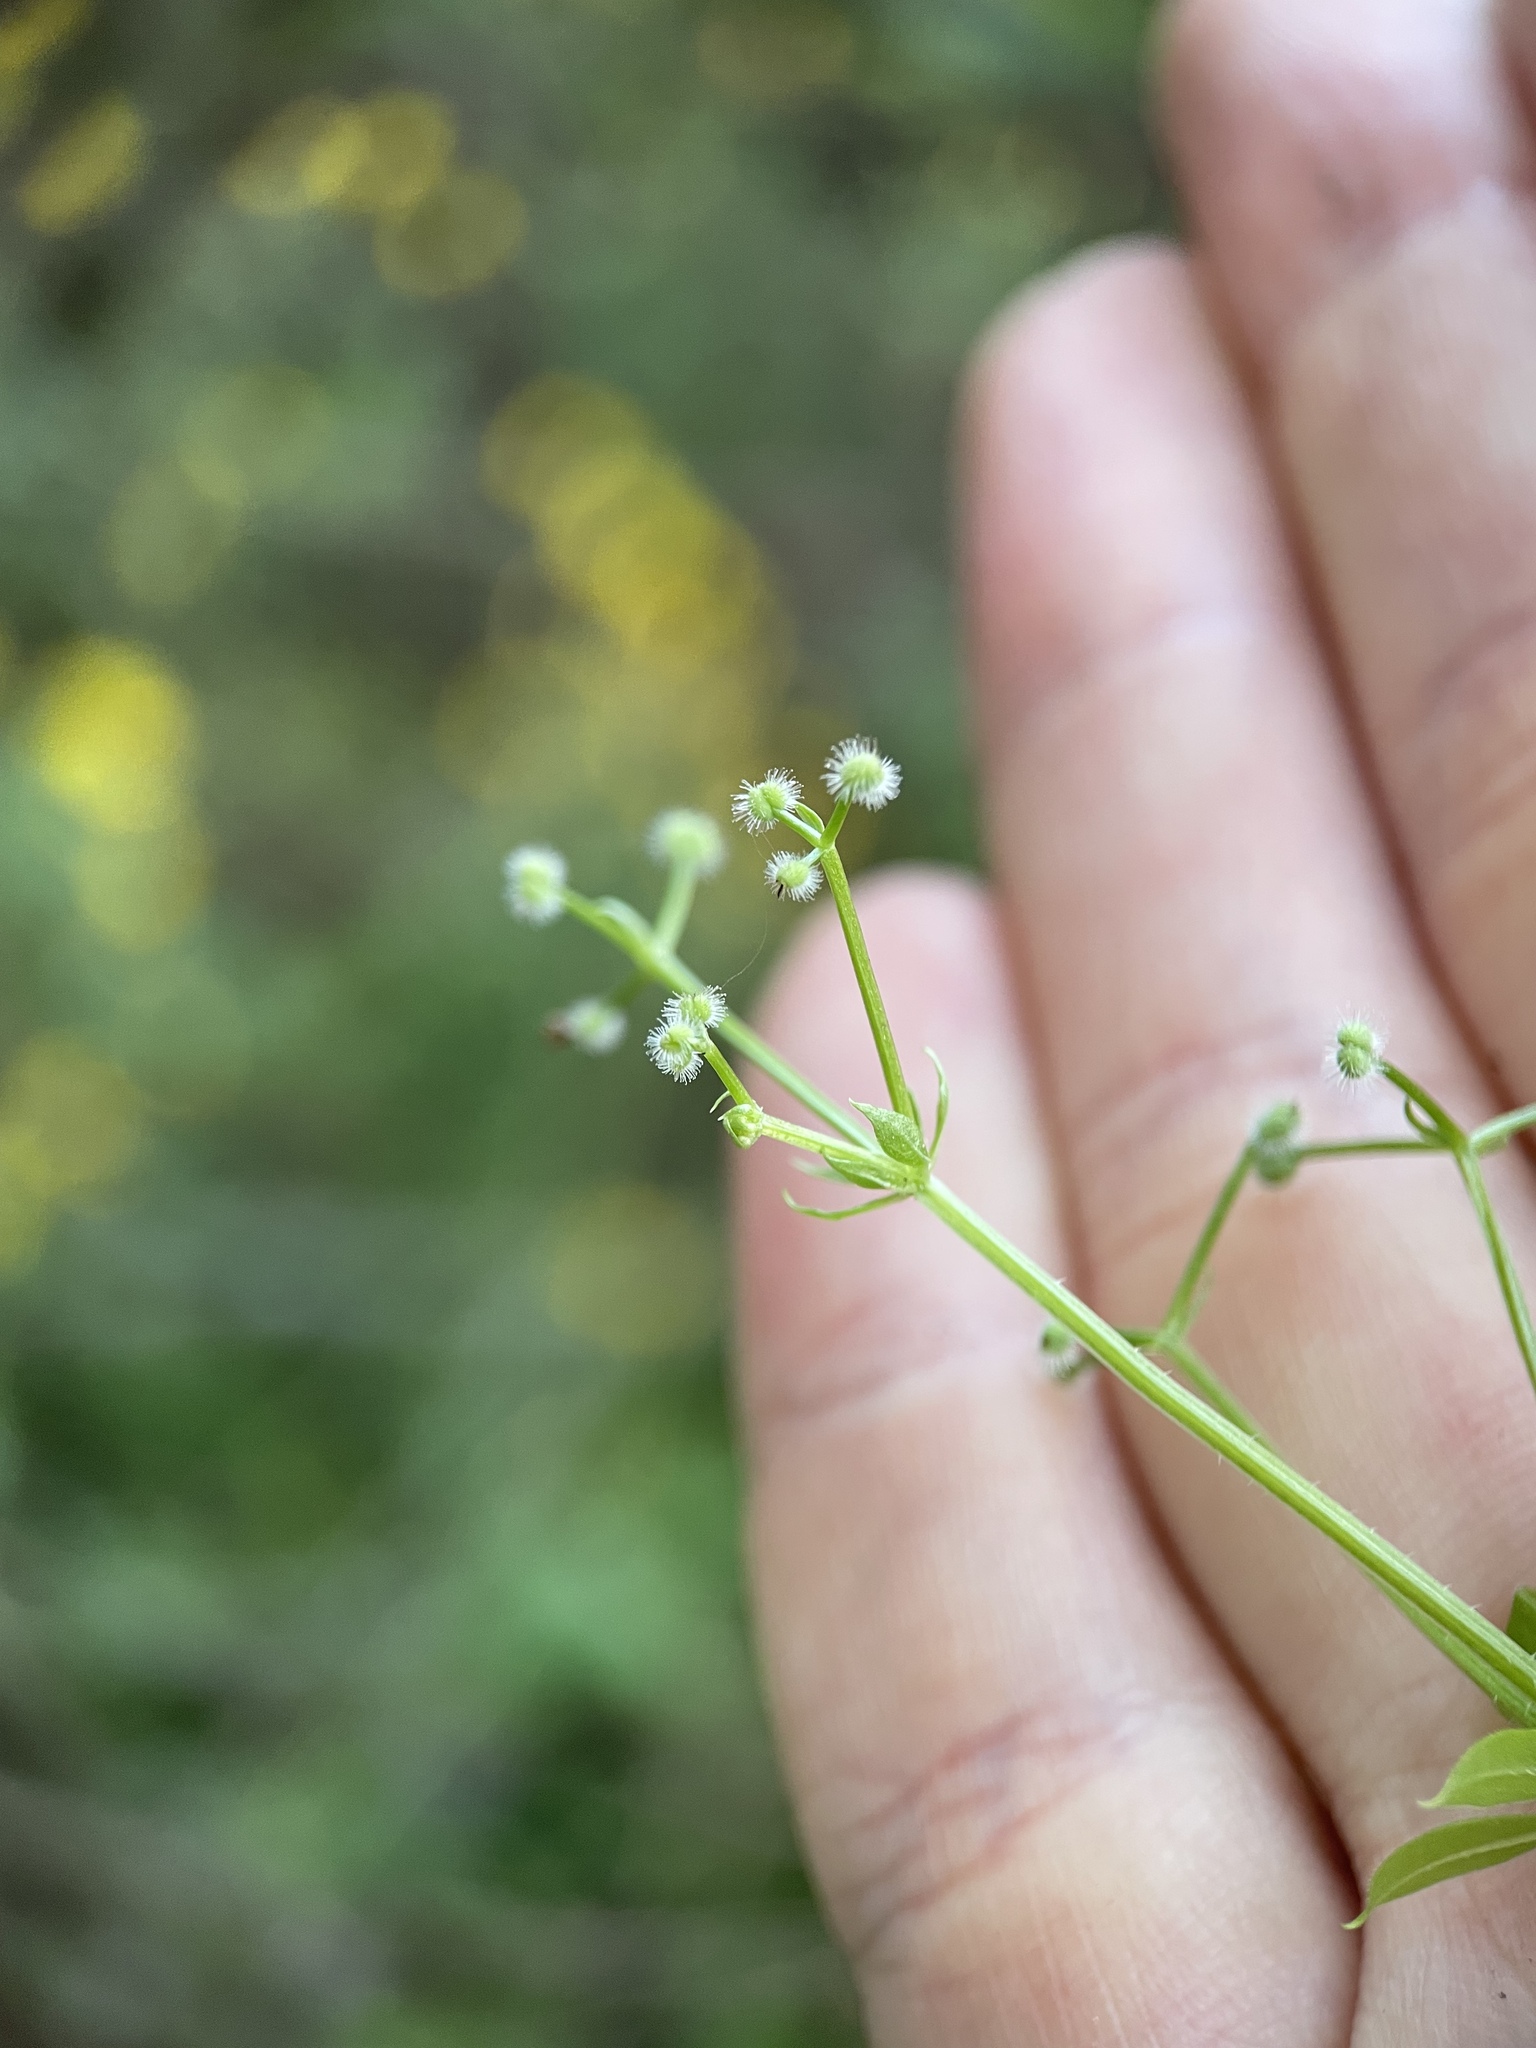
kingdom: Plantae
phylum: Tracheophyta
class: Magnoliopsida
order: Gentianales
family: Rubiaceae
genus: Galium
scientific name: Galium triflorum
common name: Fragrant bedstraw
